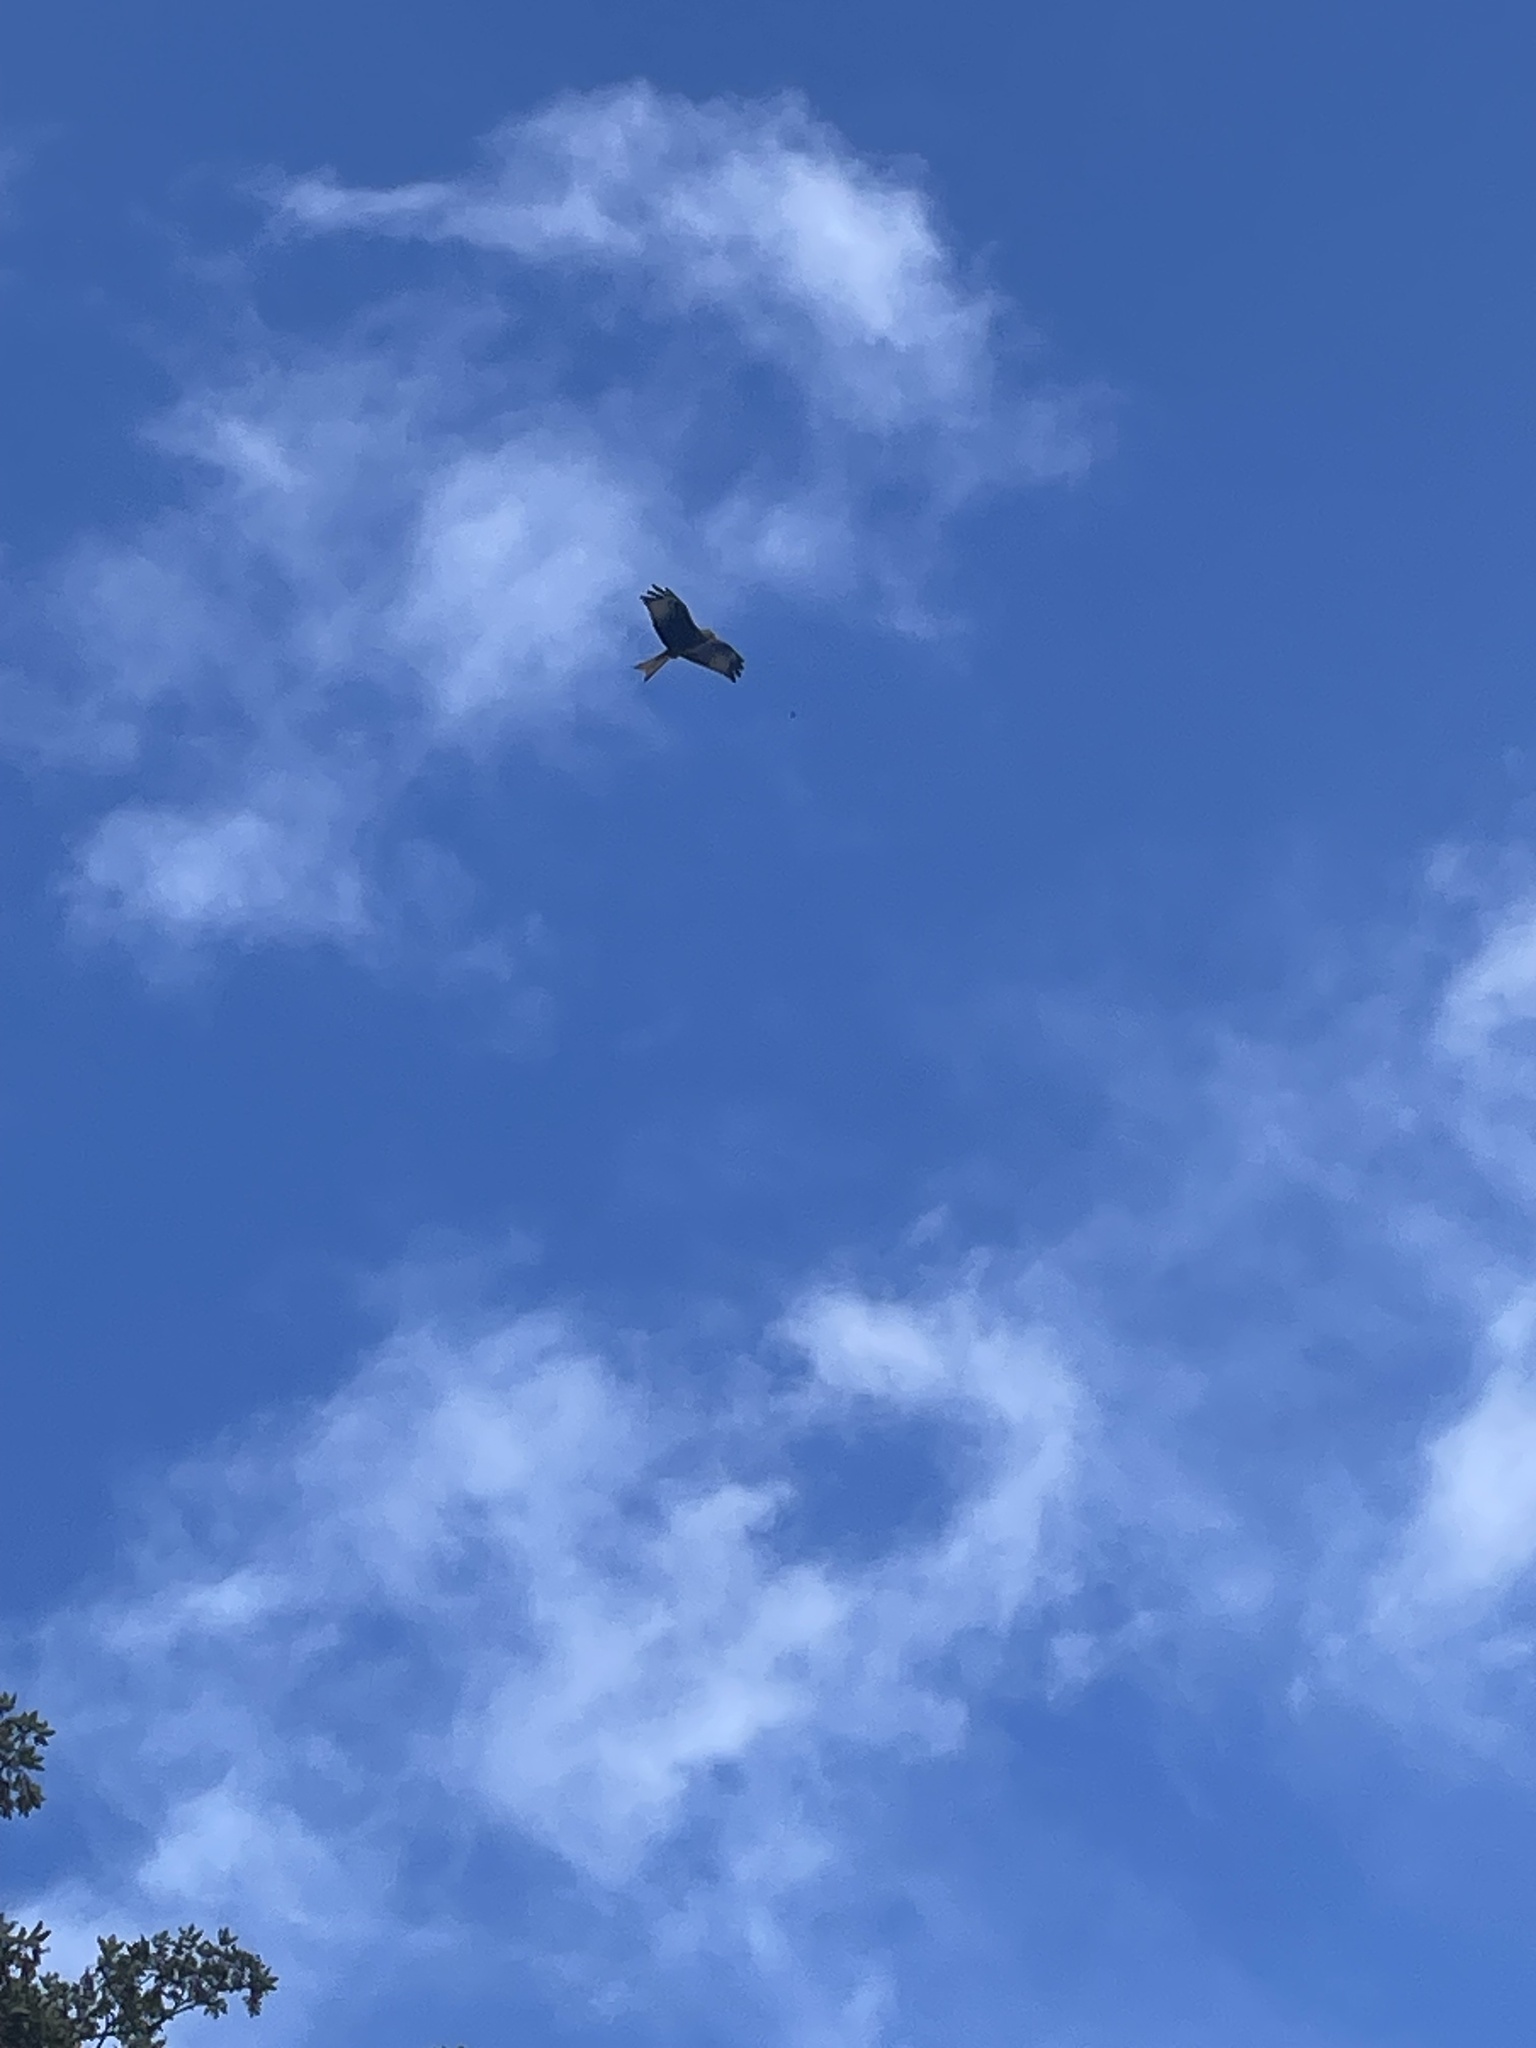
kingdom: Animalia
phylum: Chordata
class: Aves
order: Accipitriformes
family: Accipitridae
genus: Milvus
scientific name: Milvus milvus
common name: Red kite
